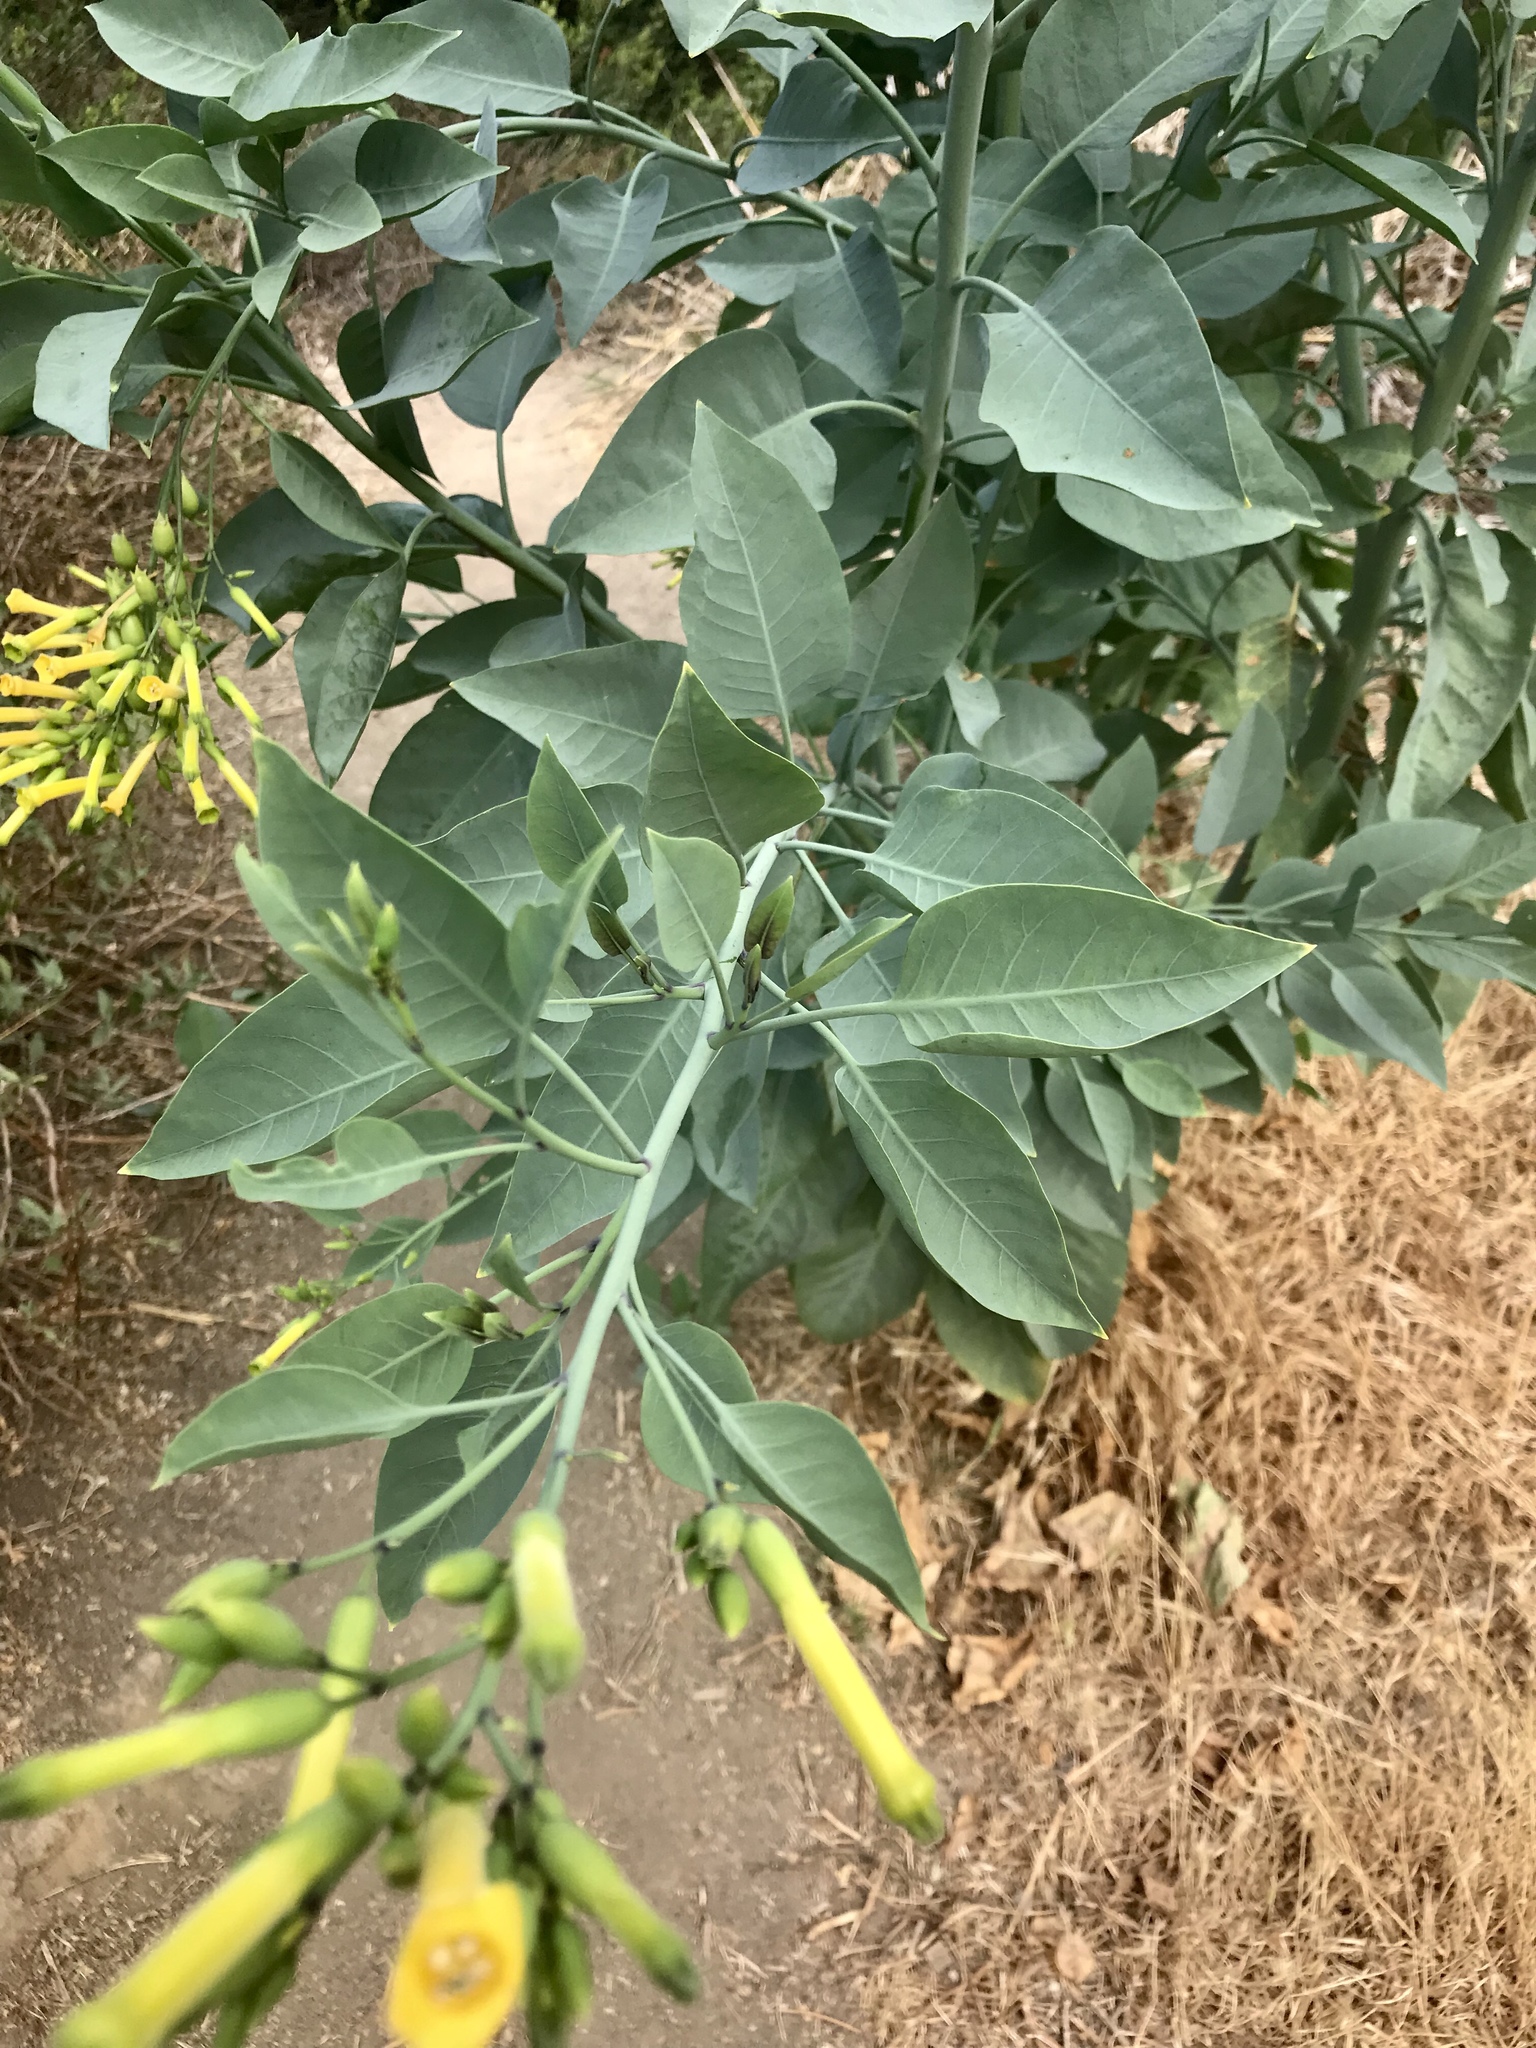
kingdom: Plantae
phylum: Tracheophyta
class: Magnoliopsida
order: Solanales
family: Solanaceae
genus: Nicotiana
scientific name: Nicotiana glauca
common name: Tree tobacco
